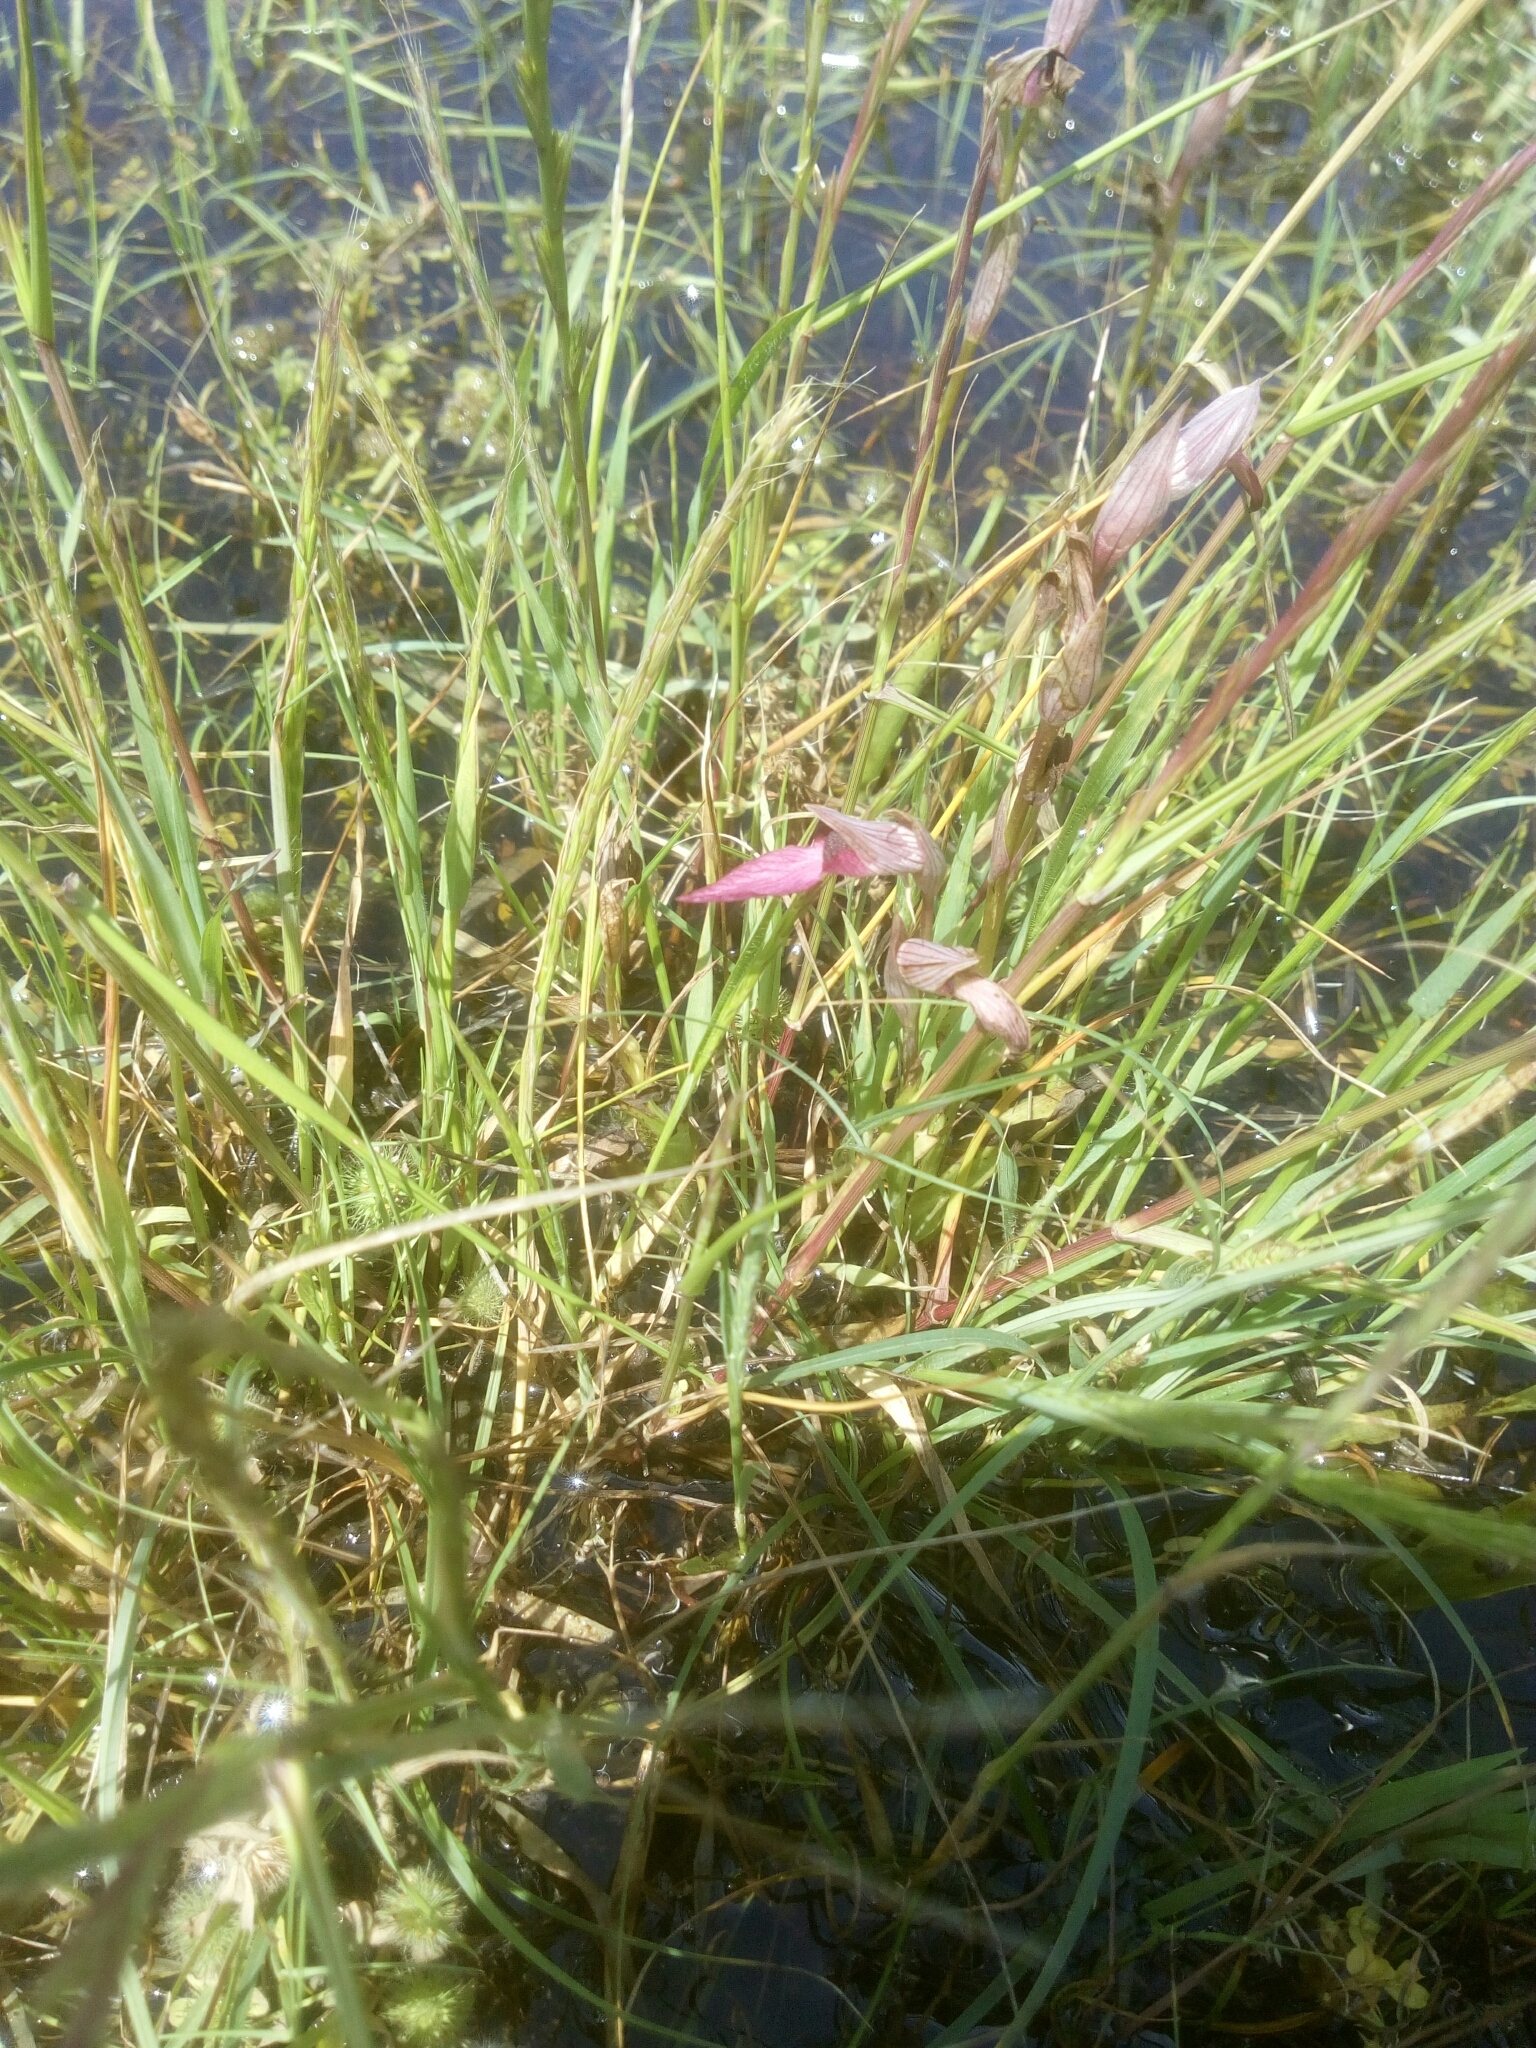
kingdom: Plantae
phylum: Tracheophyta
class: Liliopsida
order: Asparagales
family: Orchidaceae
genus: Serapias
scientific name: Serapias lingua
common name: Tongue-orchid
